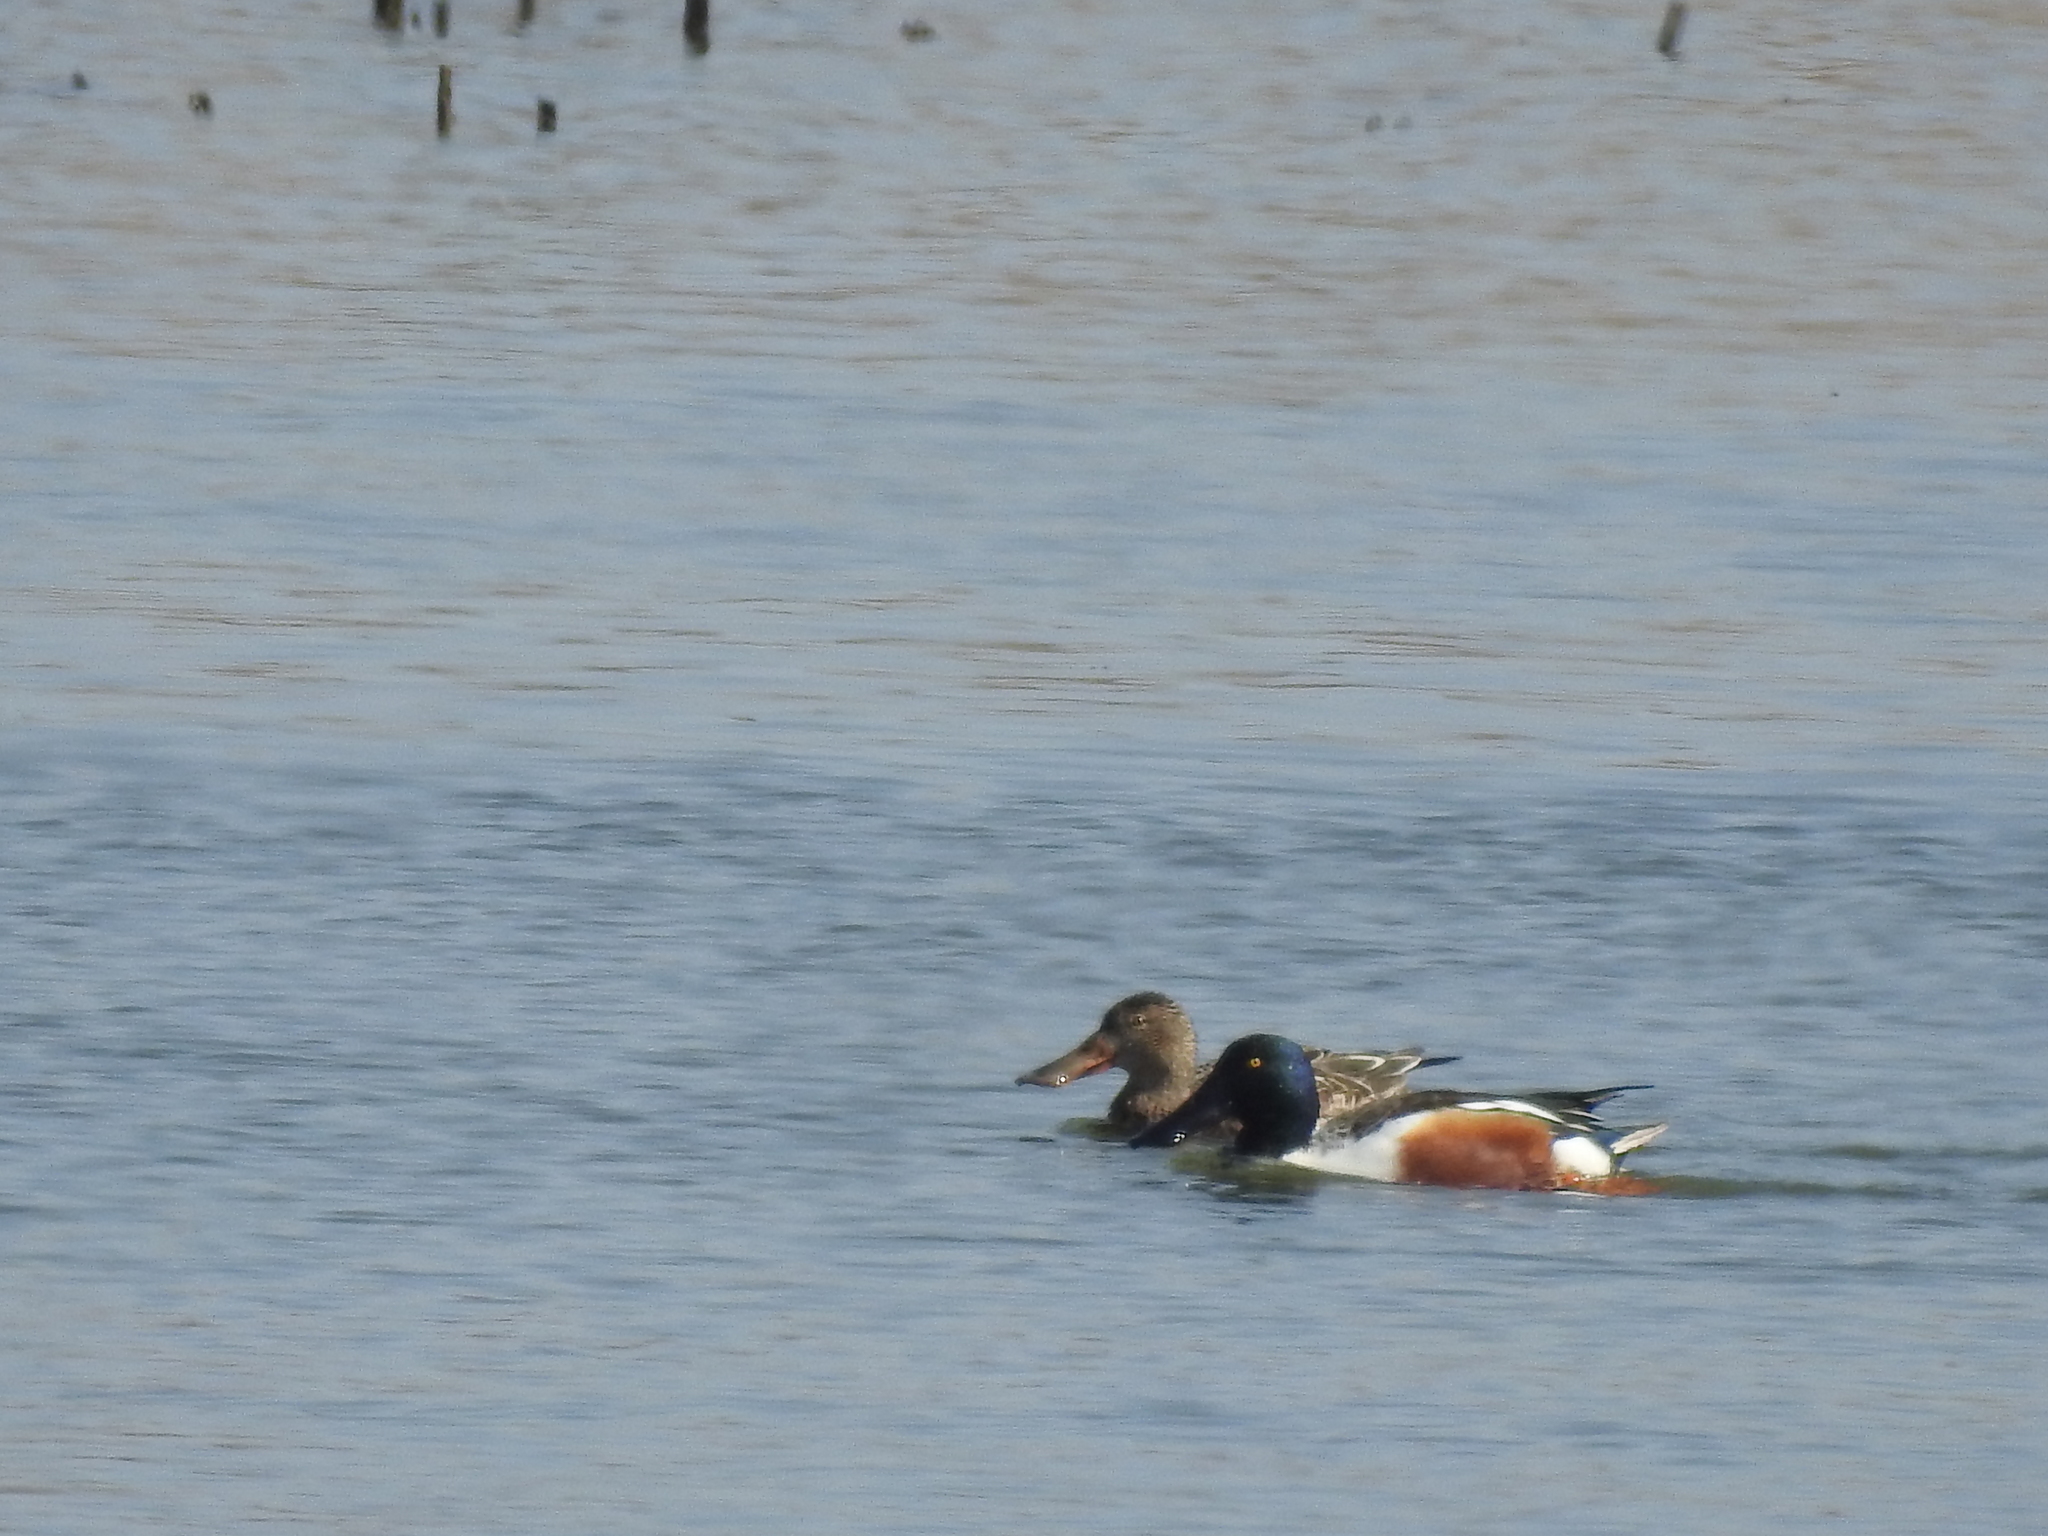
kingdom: Animalia
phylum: Chordata
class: Aves
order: Anseriformes
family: Anatidae
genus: Spatula
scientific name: Spatula clypeata
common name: Northern shoveler
